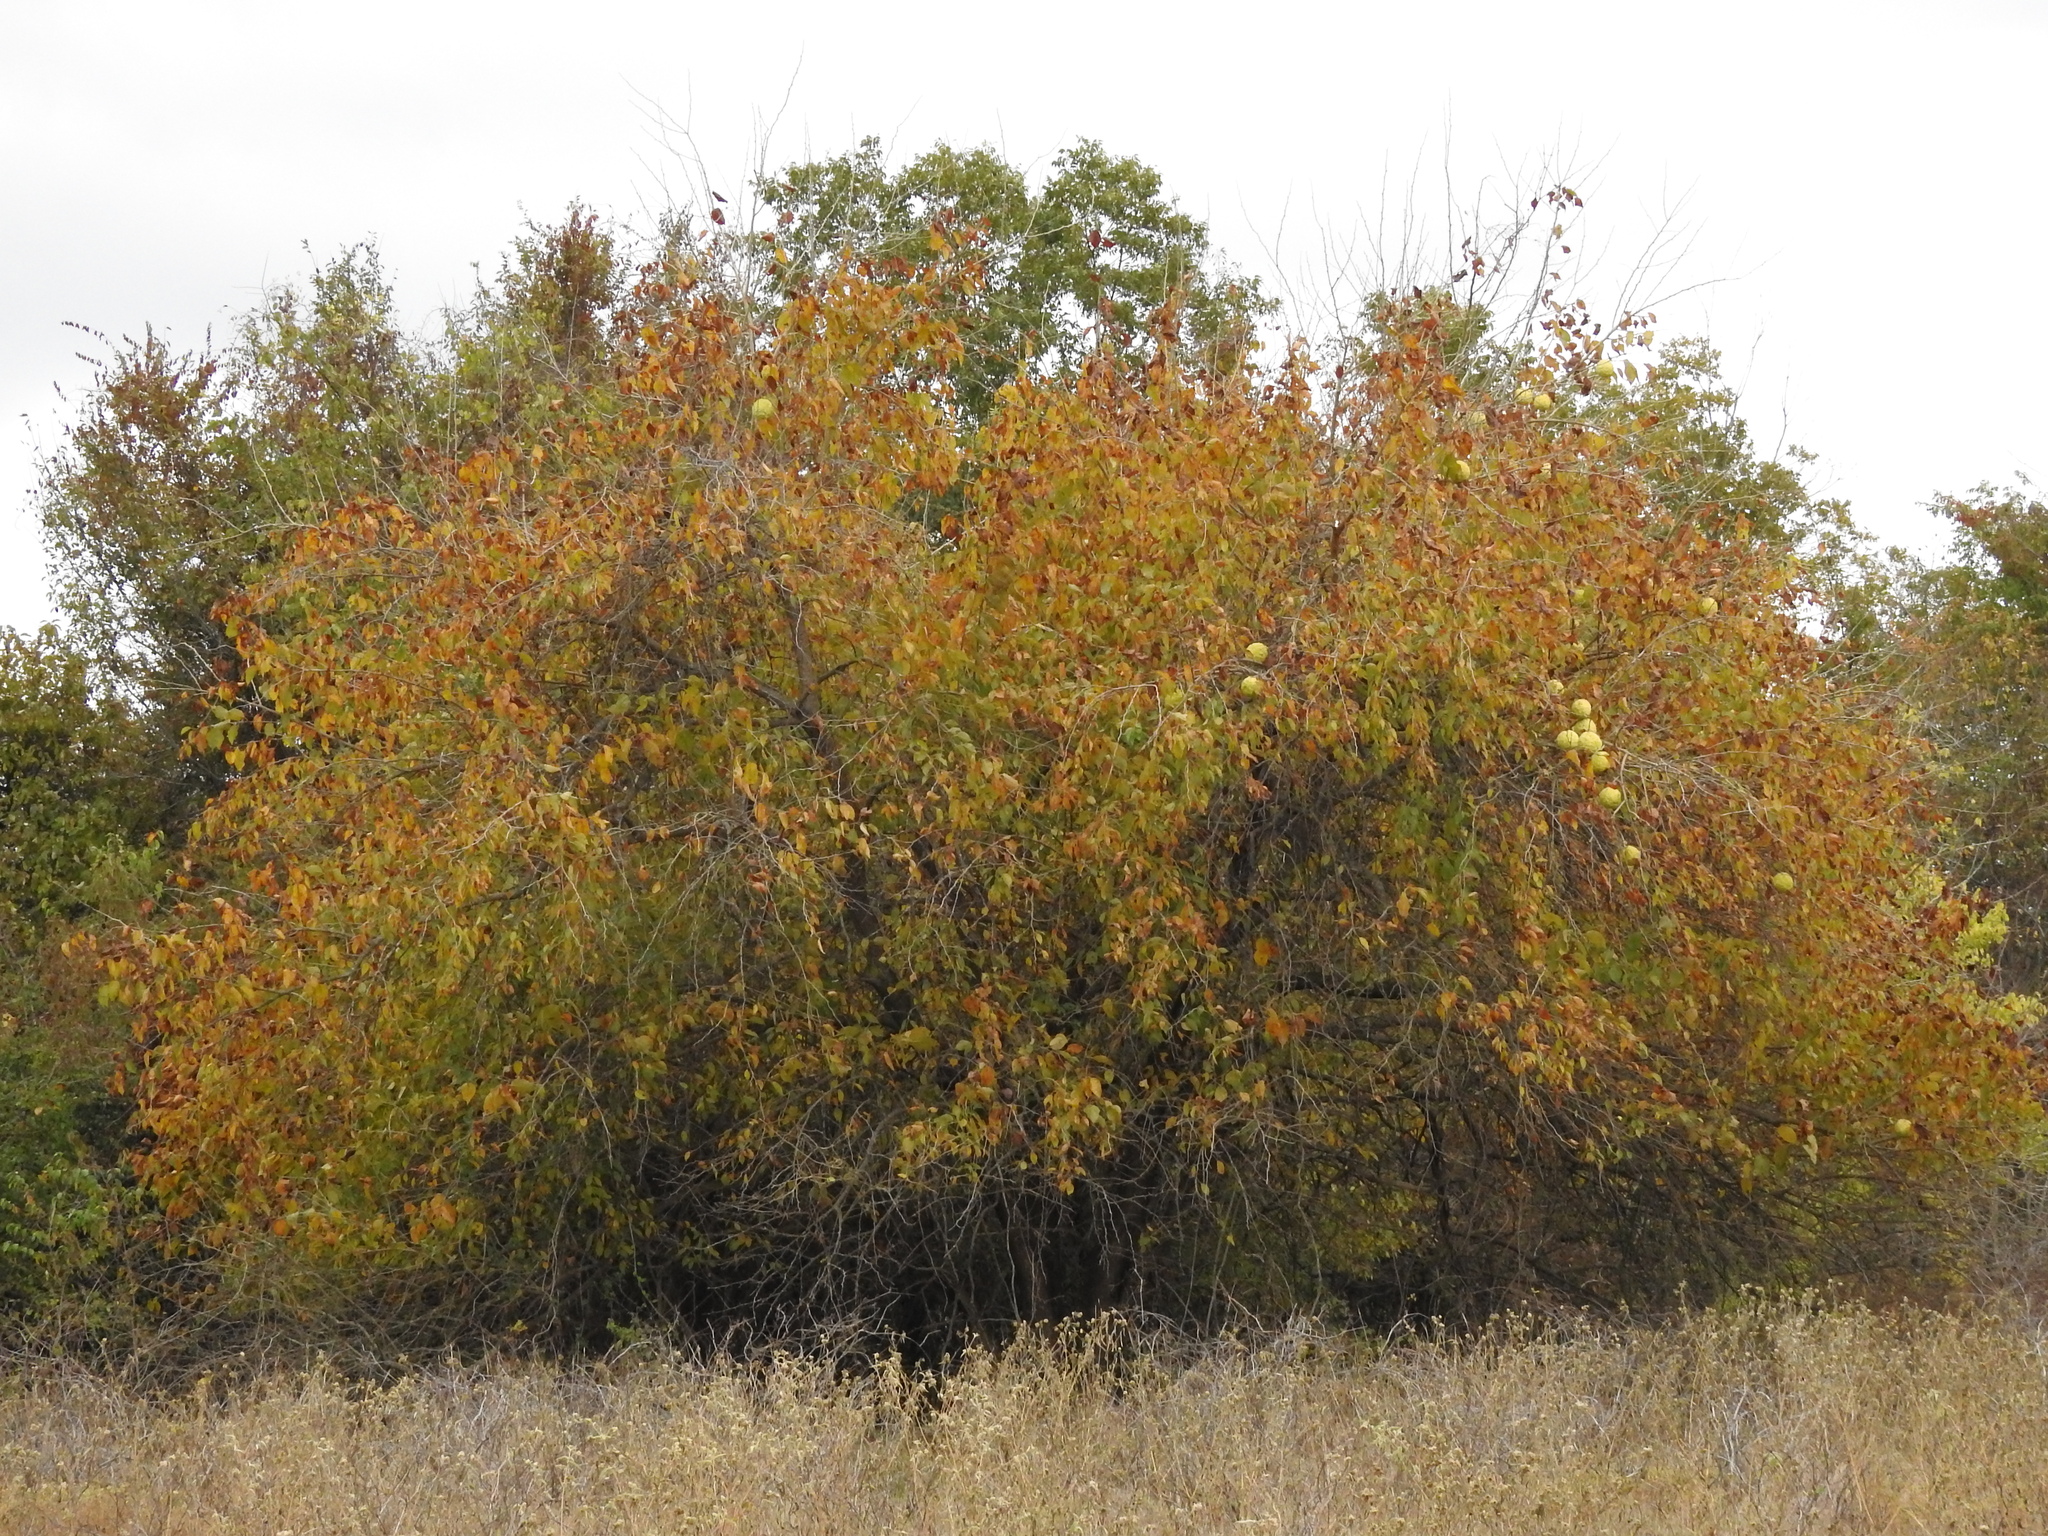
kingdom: Plantae
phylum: Tracheophyta
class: Magnoliopsida
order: Rosales
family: Moraceae
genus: Maclura
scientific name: Maclura pomifera
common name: Osage-orange
